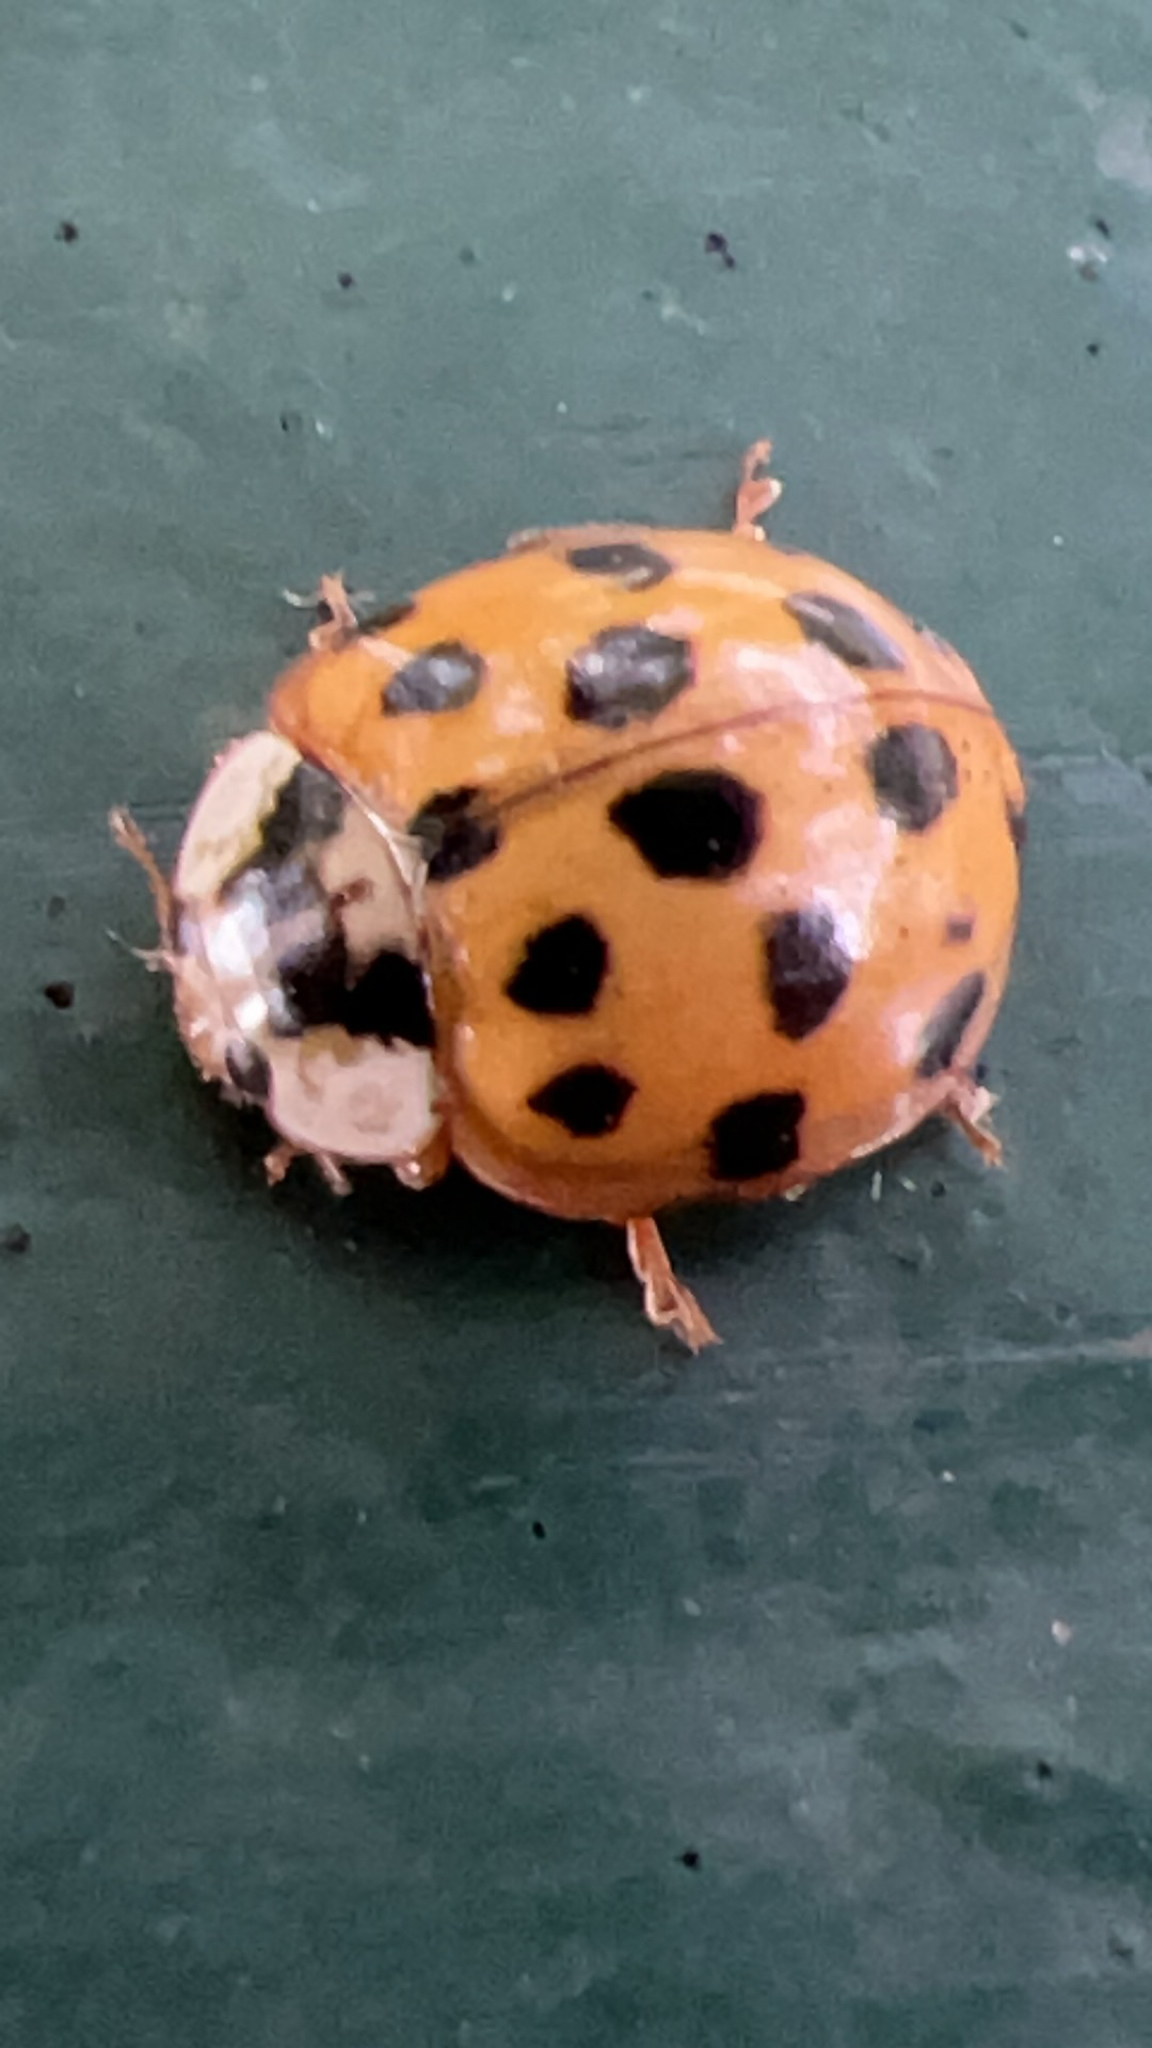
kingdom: Animalia
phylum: Arthropoda
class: Insecta
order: Coleoptera
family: Coccinellidae
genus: Harmonia
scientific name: Harmonia axyridis
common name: Harlequin ladybird
